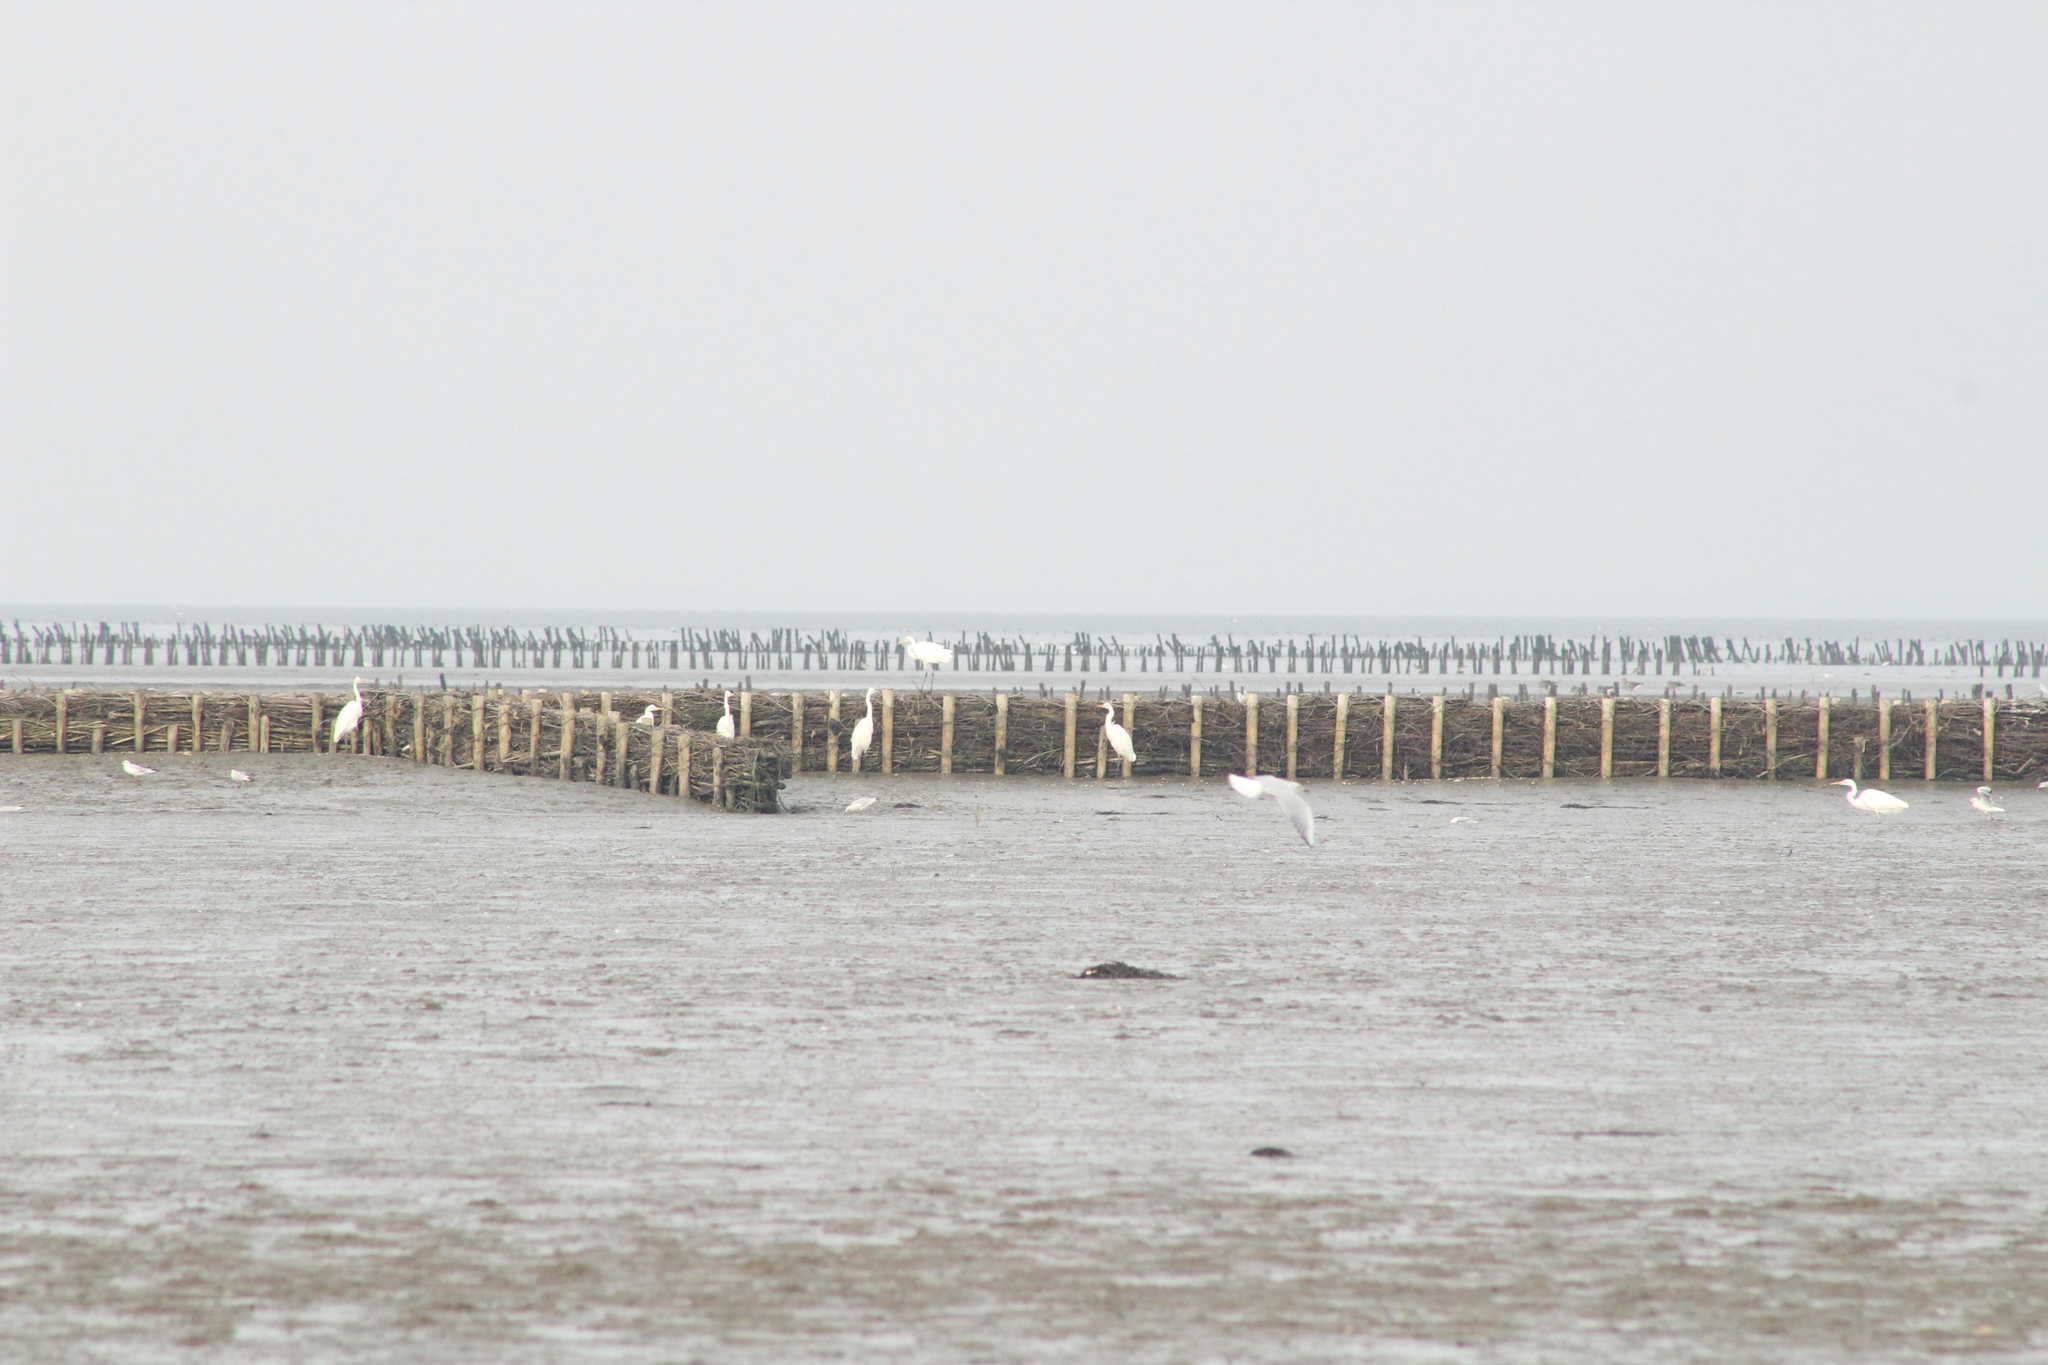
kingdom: Animalia
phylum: Chordata
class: Aves
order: Pelecaniformes
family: Ardeidae
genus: Ardea
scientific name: Ardea alba
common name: Great egret
